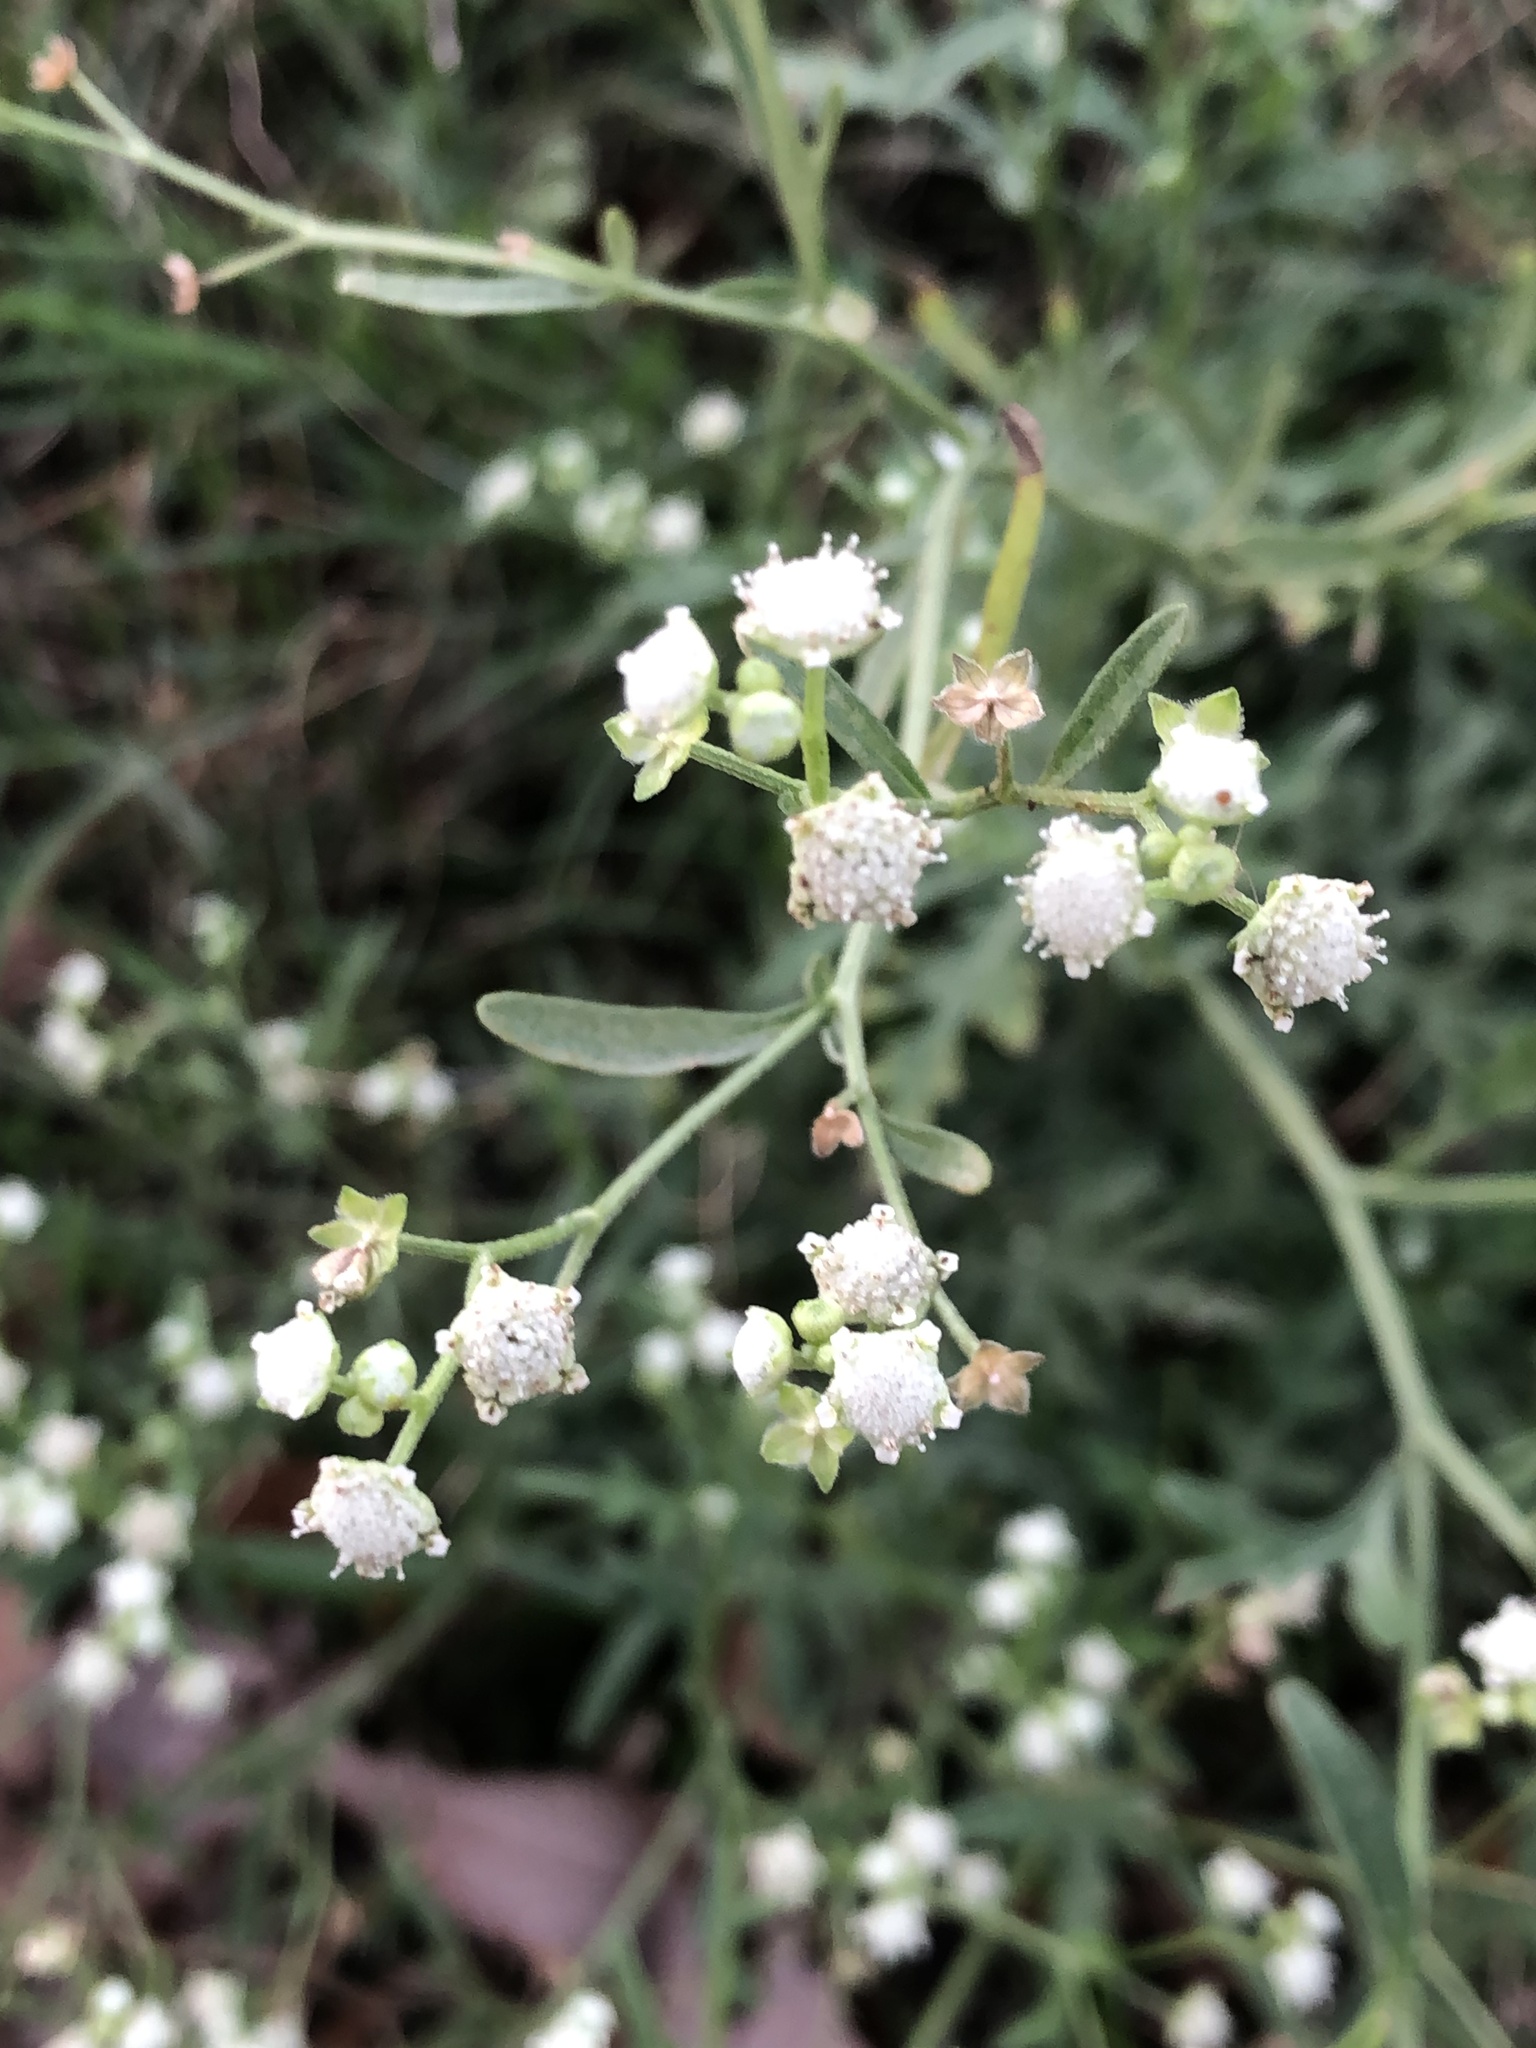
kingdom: Plantae
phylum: Tracheophyta
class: Magnoliopsida
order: Asterales
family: Asteraceae
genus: Parthenium
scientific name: Parthenium hysterophorus
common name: Santa maria feverfew
